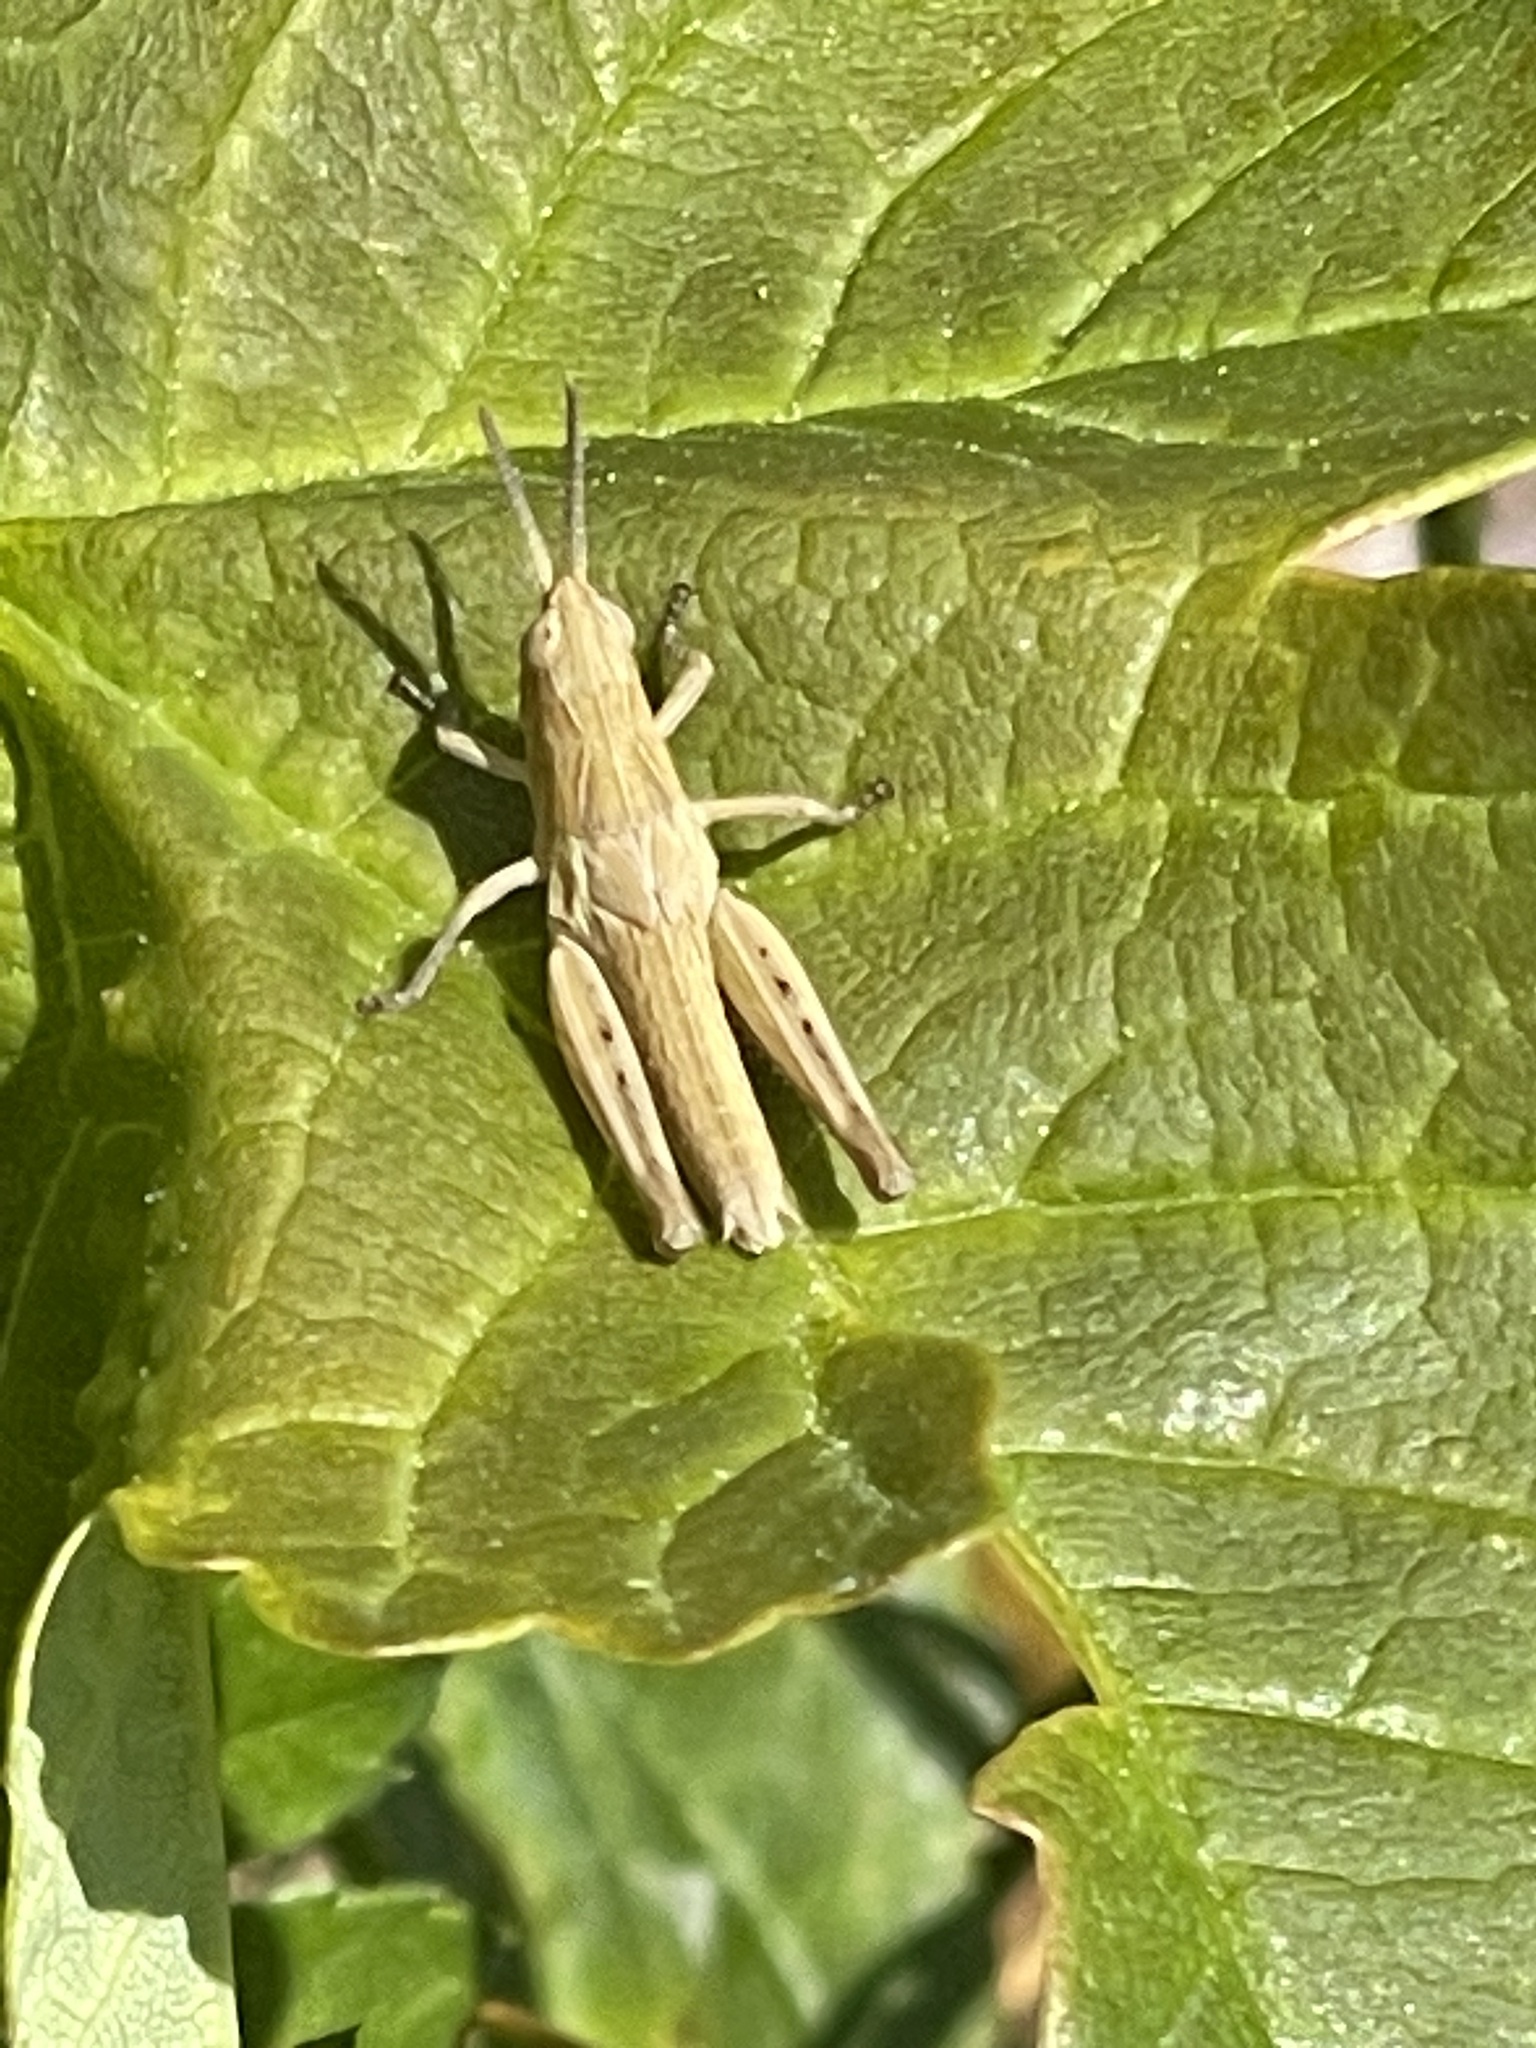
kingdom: Animalia
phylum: Arthropoda
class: Insecta
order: Orthoptera
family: Acrididae
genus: Chorthippus
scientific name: Chorthippus brunneus
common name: Field grasshopper
